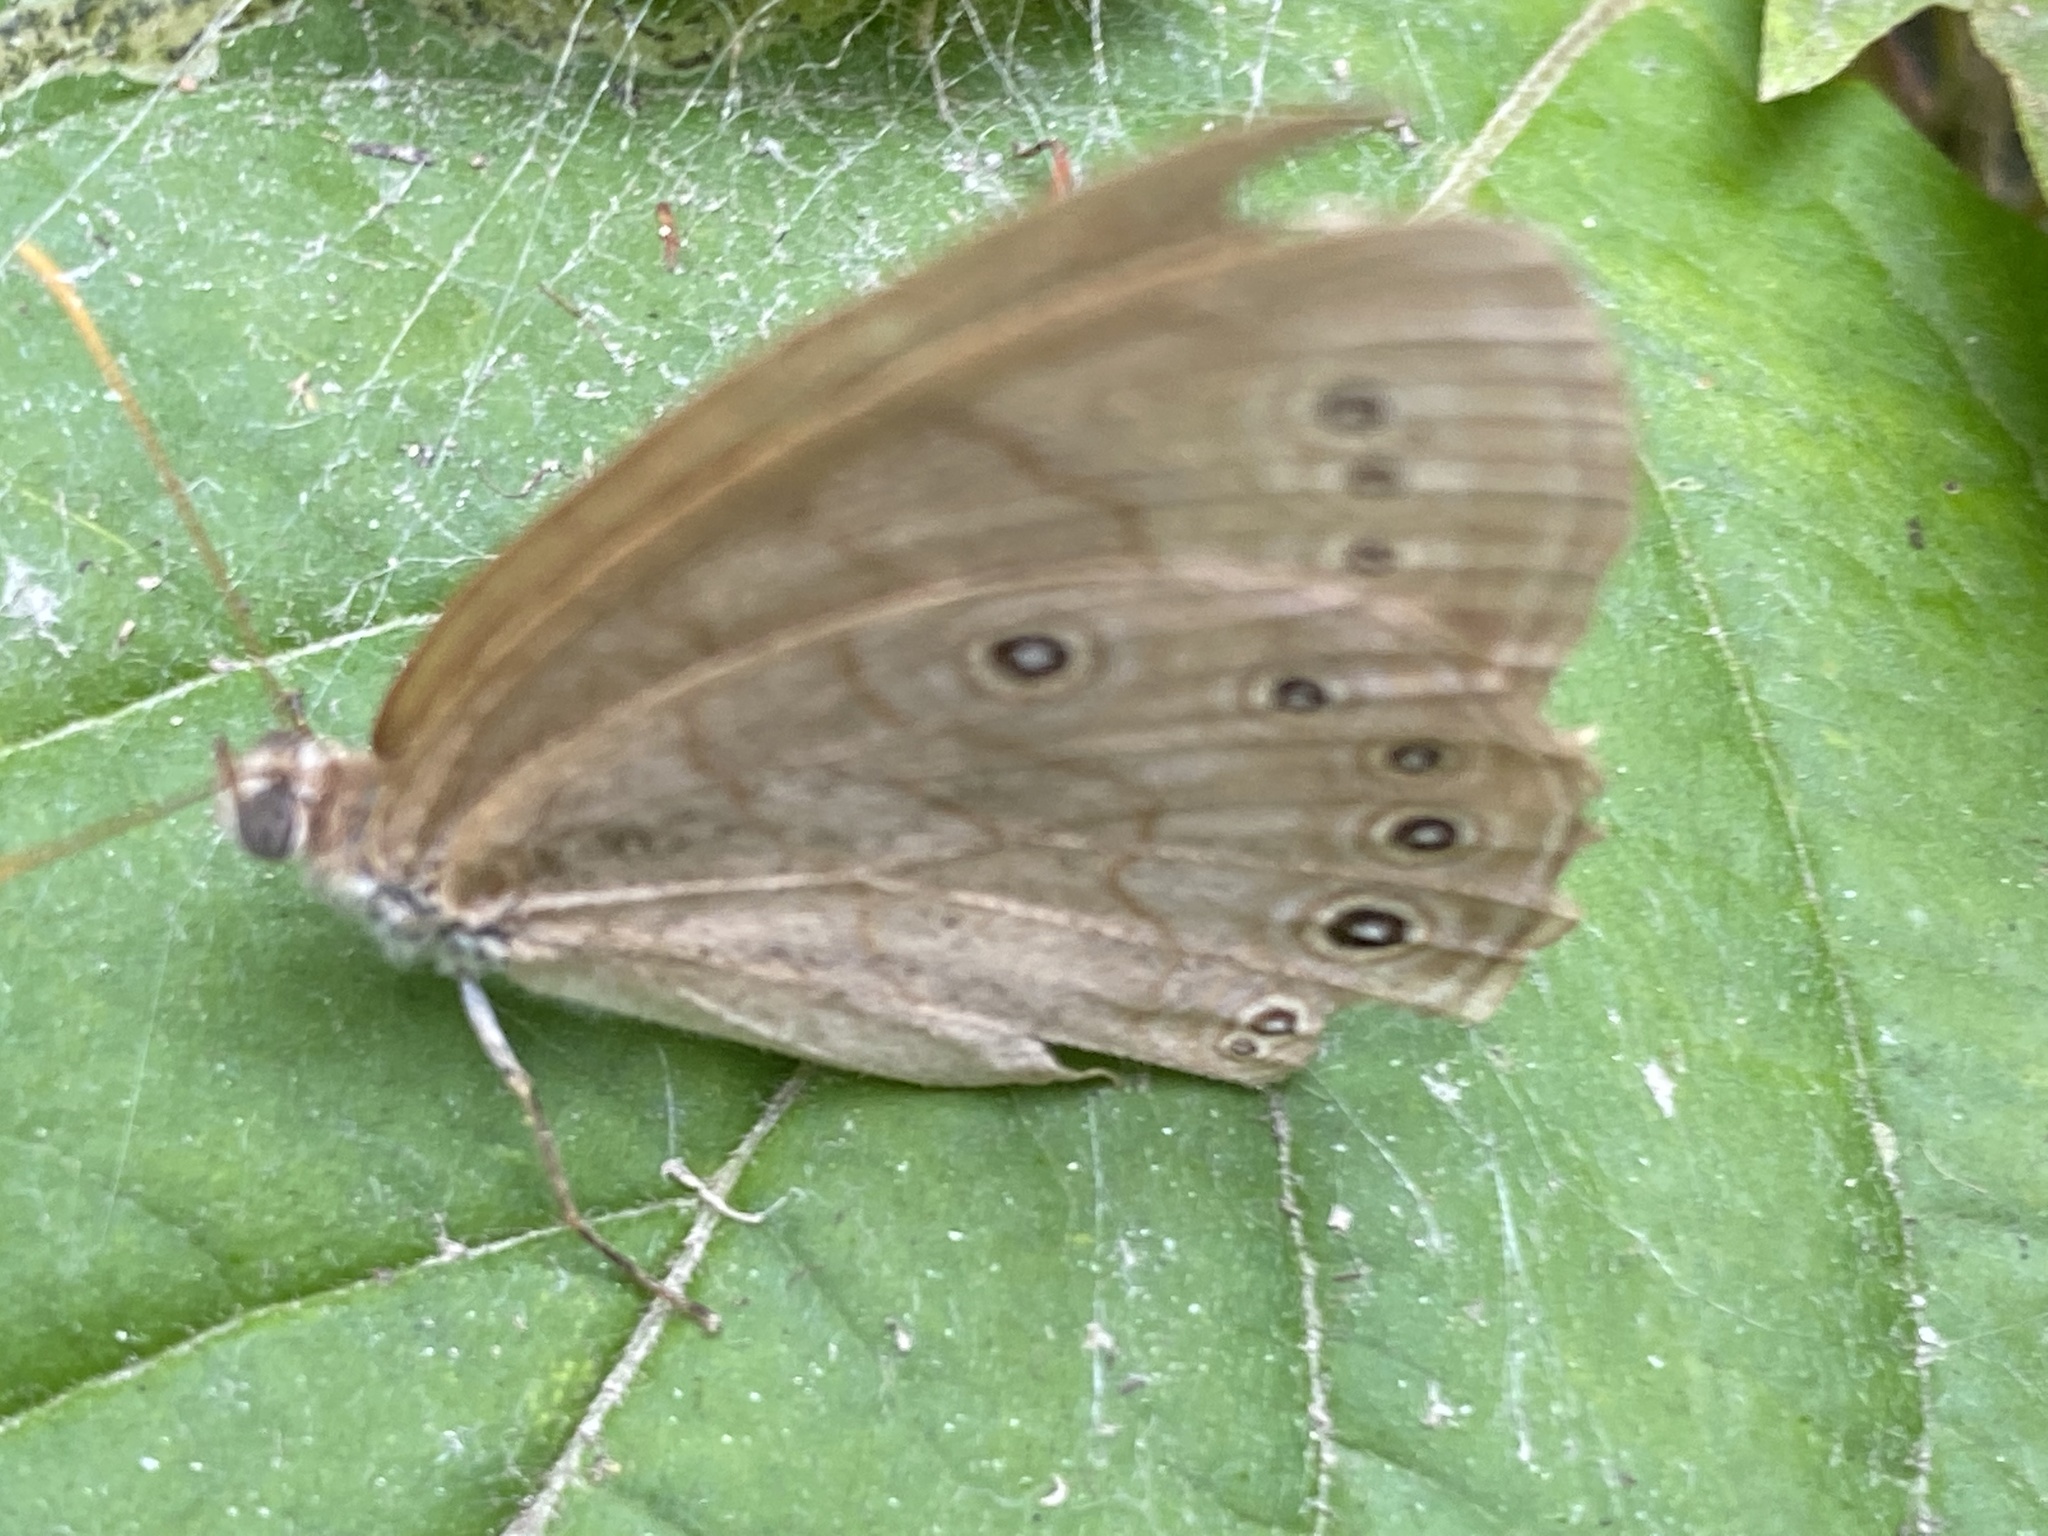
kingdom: Animalia
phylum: Arthropoda
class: Insecta
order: Lepidoptera
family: Nymphalidae
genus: Lethe
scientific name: Lethe eurydice
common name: Eyed brown
